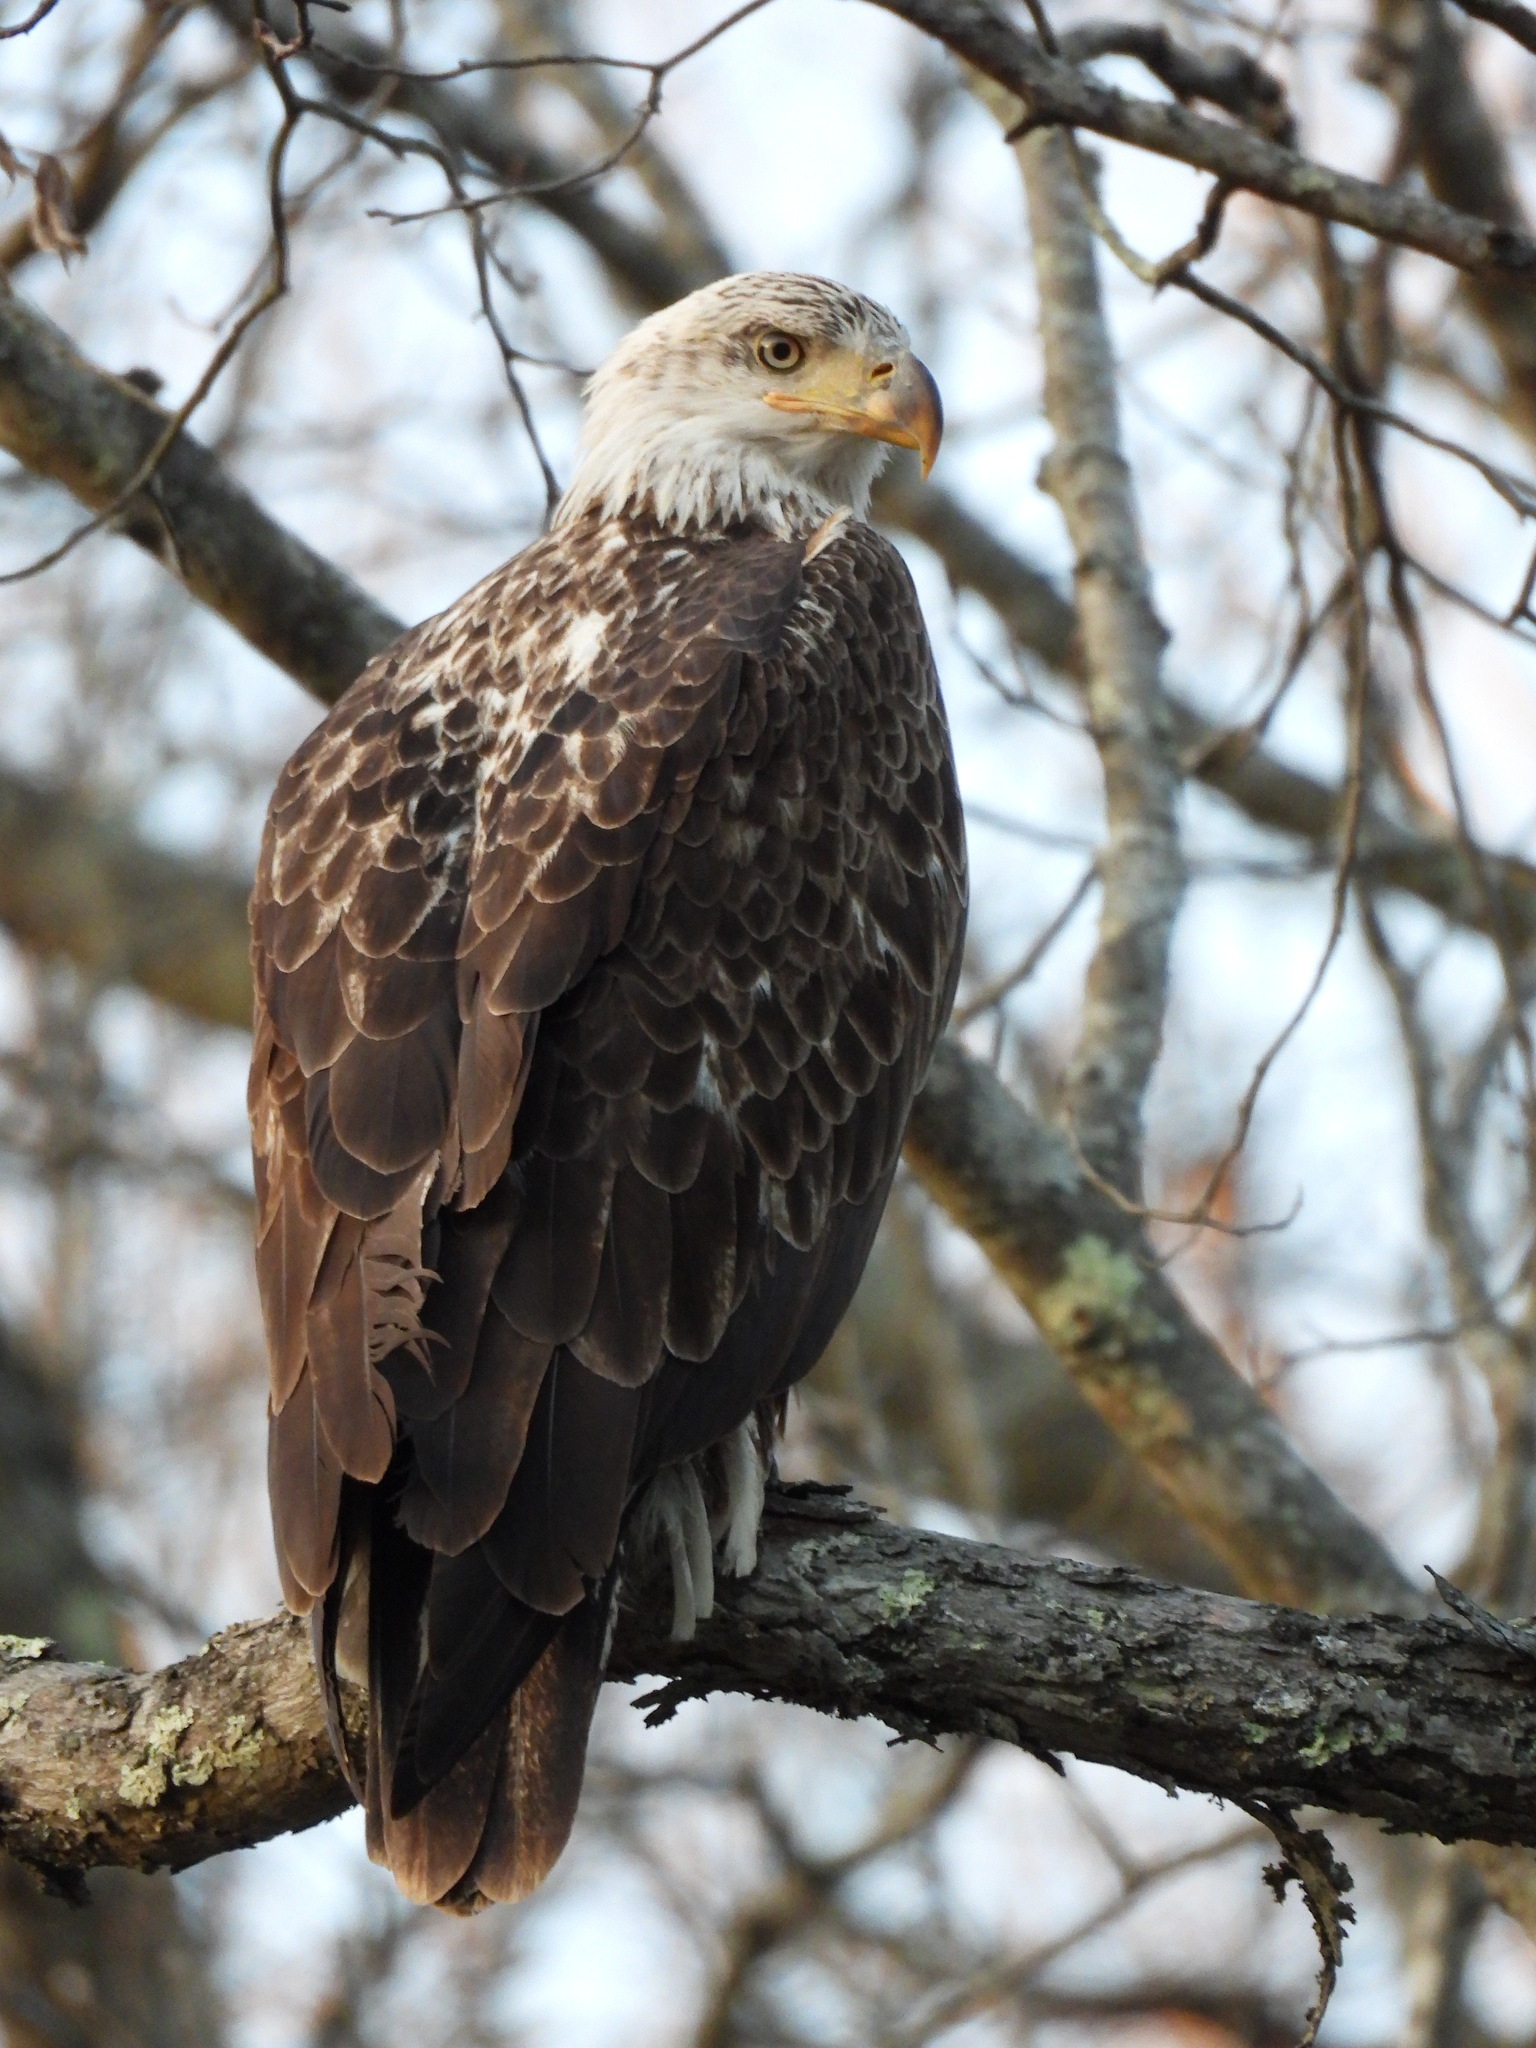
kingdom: Animalia
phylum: Chordata
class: Aves
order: Accipitriformes
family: Accipitridae
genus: Haliaeetus
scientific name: Haliaeetus leucocephalus
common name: Bald eagle
